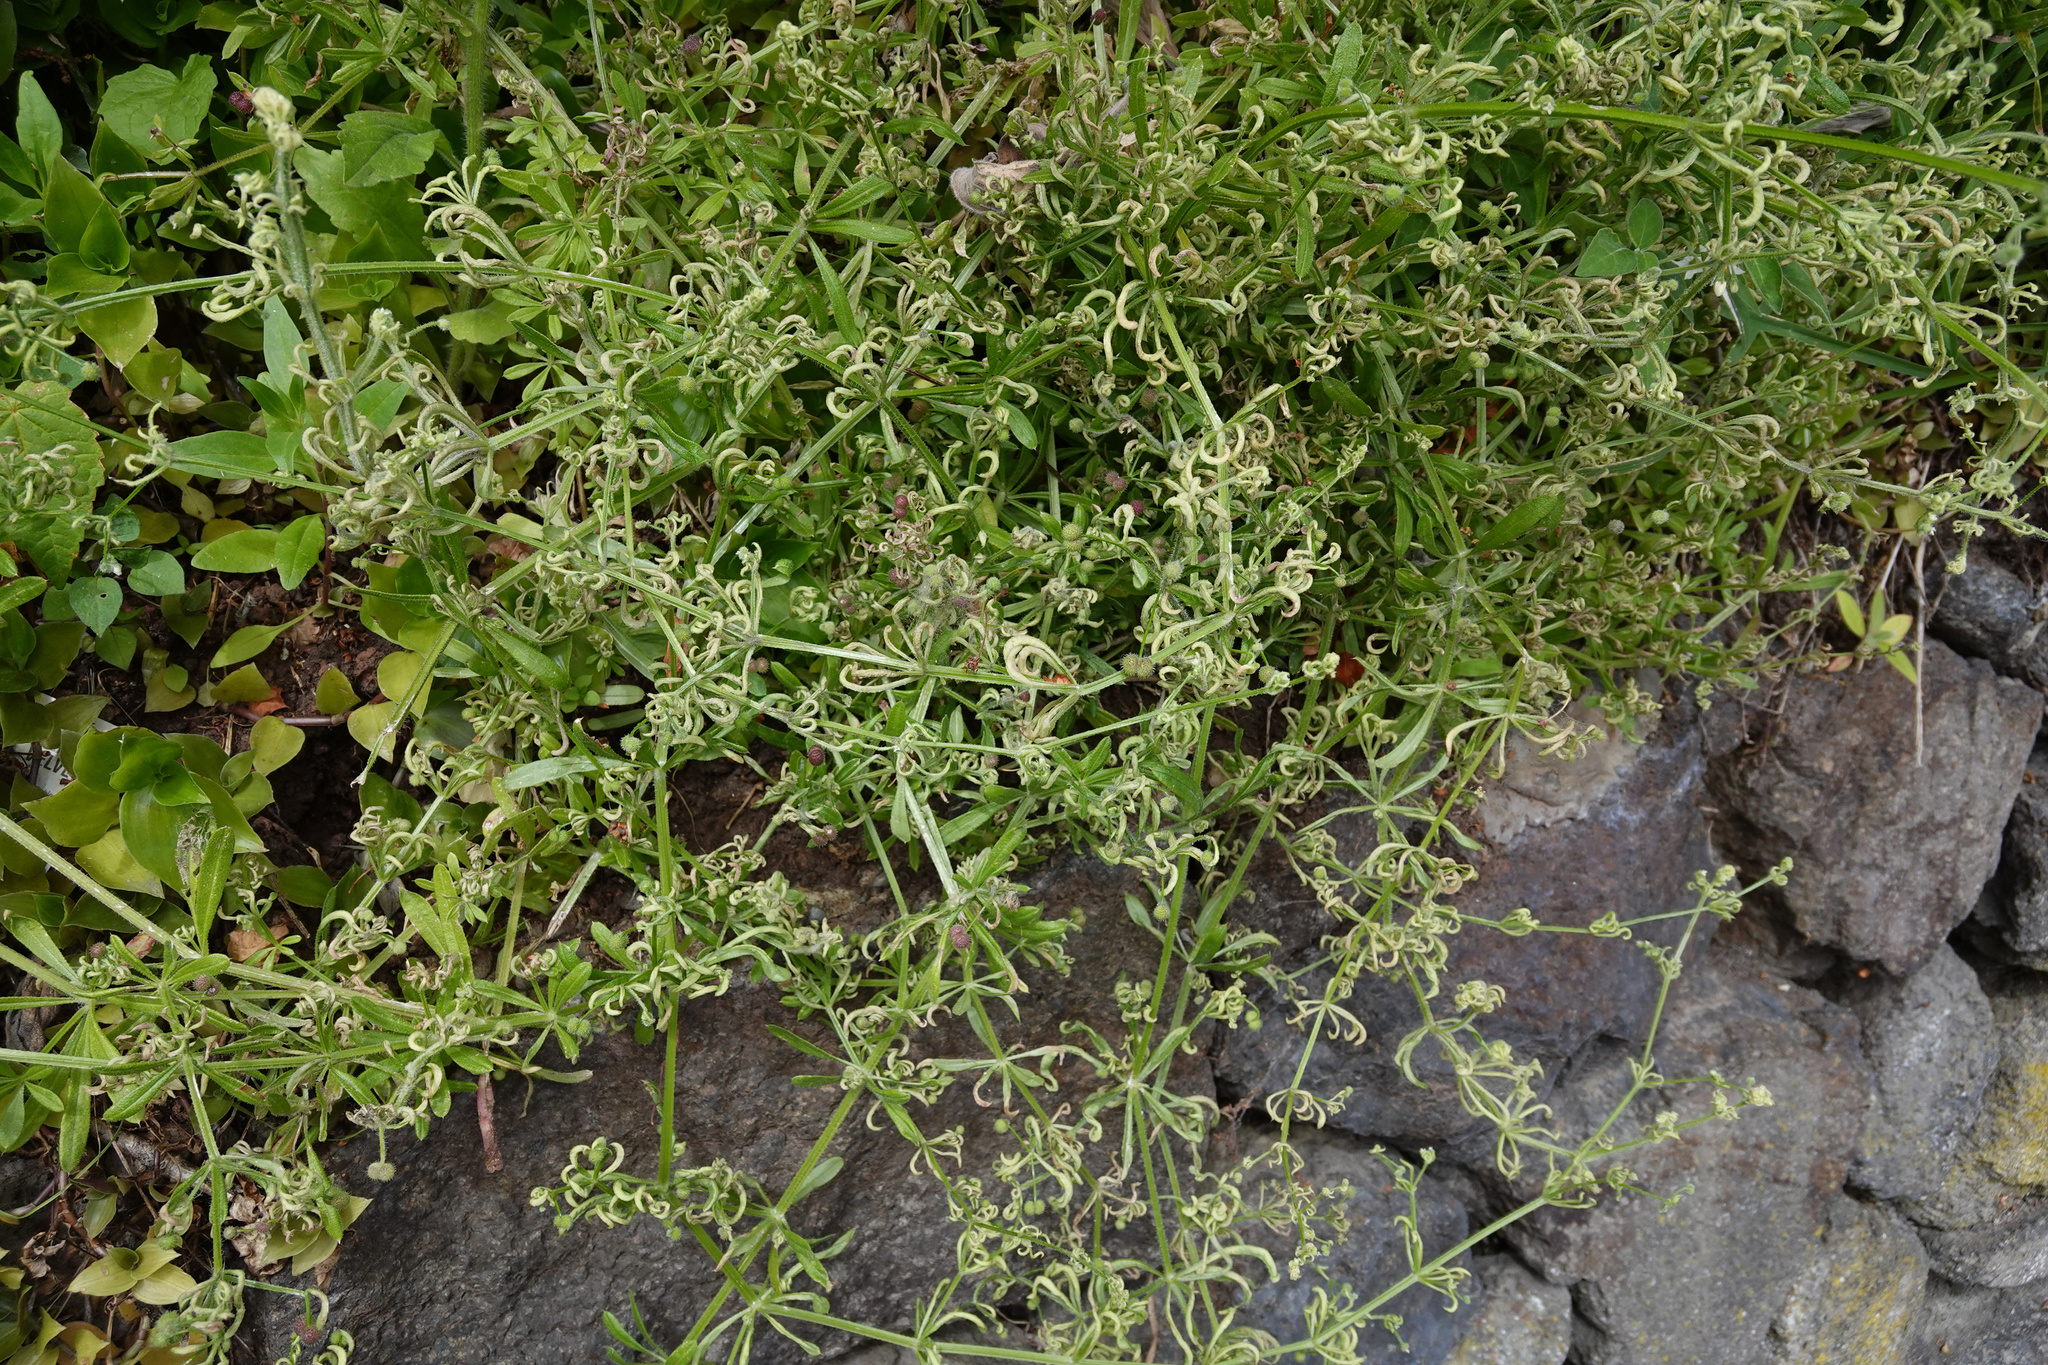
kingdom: Animalia
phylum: Arthropoda
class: Arachnida
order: Trombidiformes
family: Eriophyidae
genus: Cecidophyes
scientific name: Cecidophyes rouhollahi
